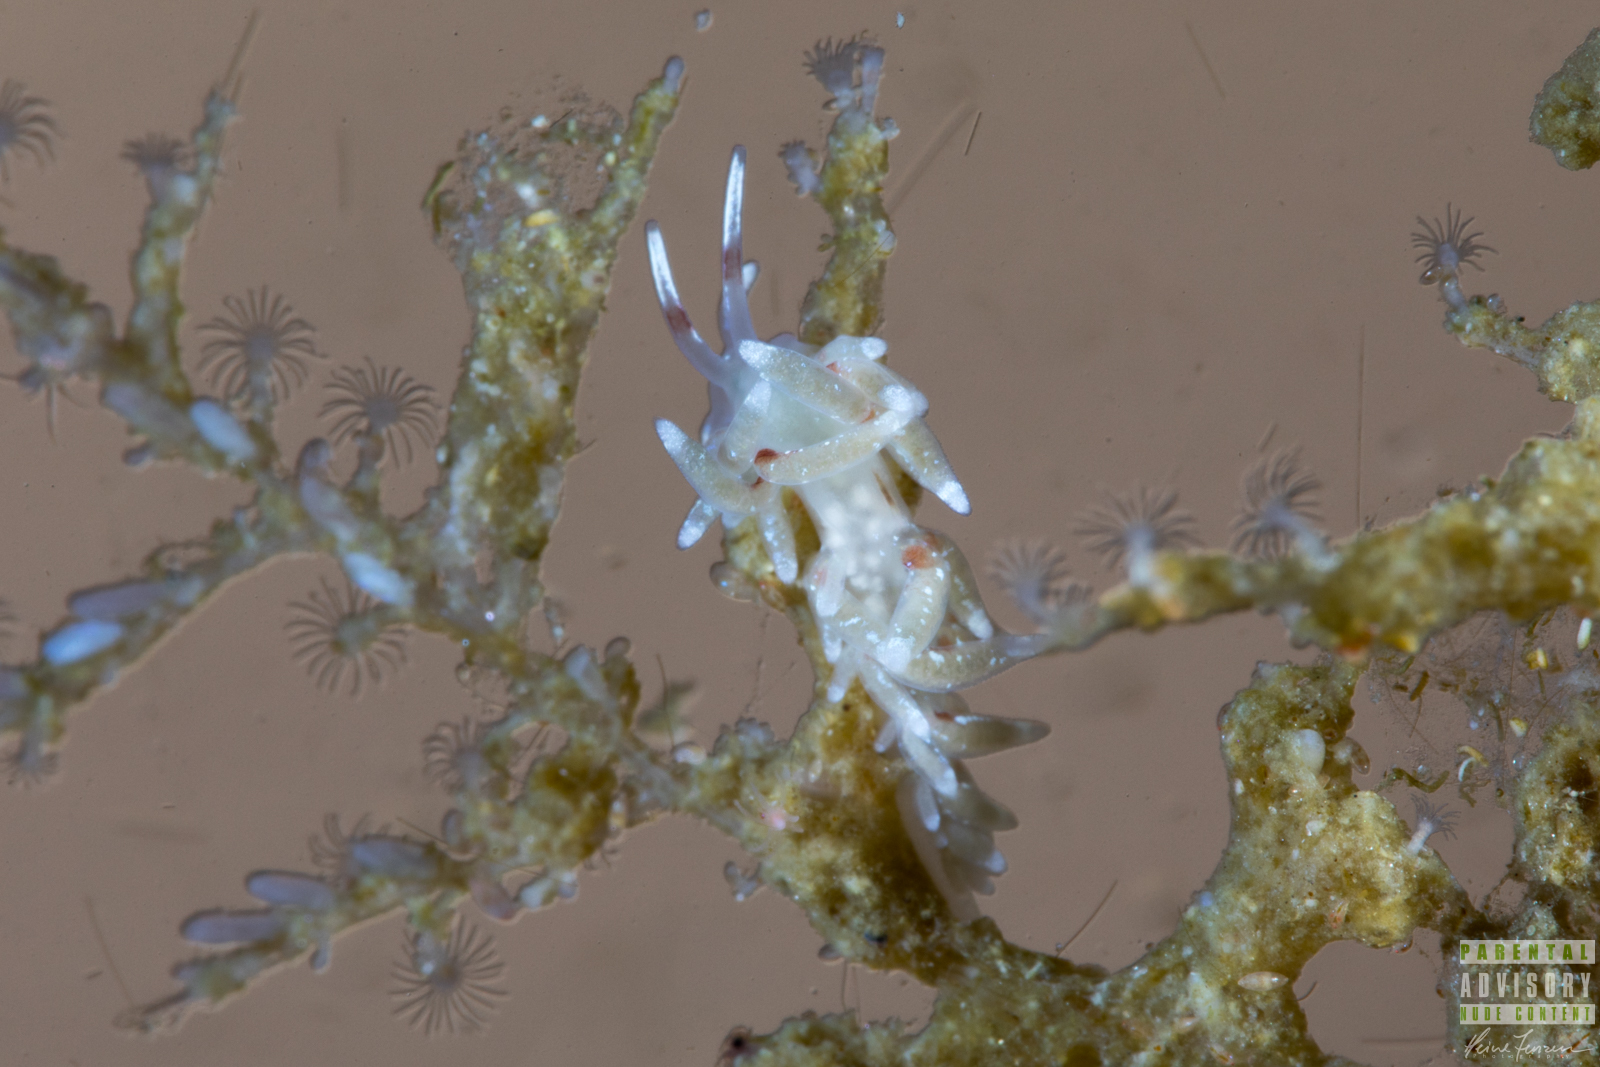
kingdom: Animalia
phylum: Mollusca
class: Gastropoda
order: Nudibranchia
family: Trinchesiidae
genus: Rubramoena
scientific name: Rubramoena rubescens
